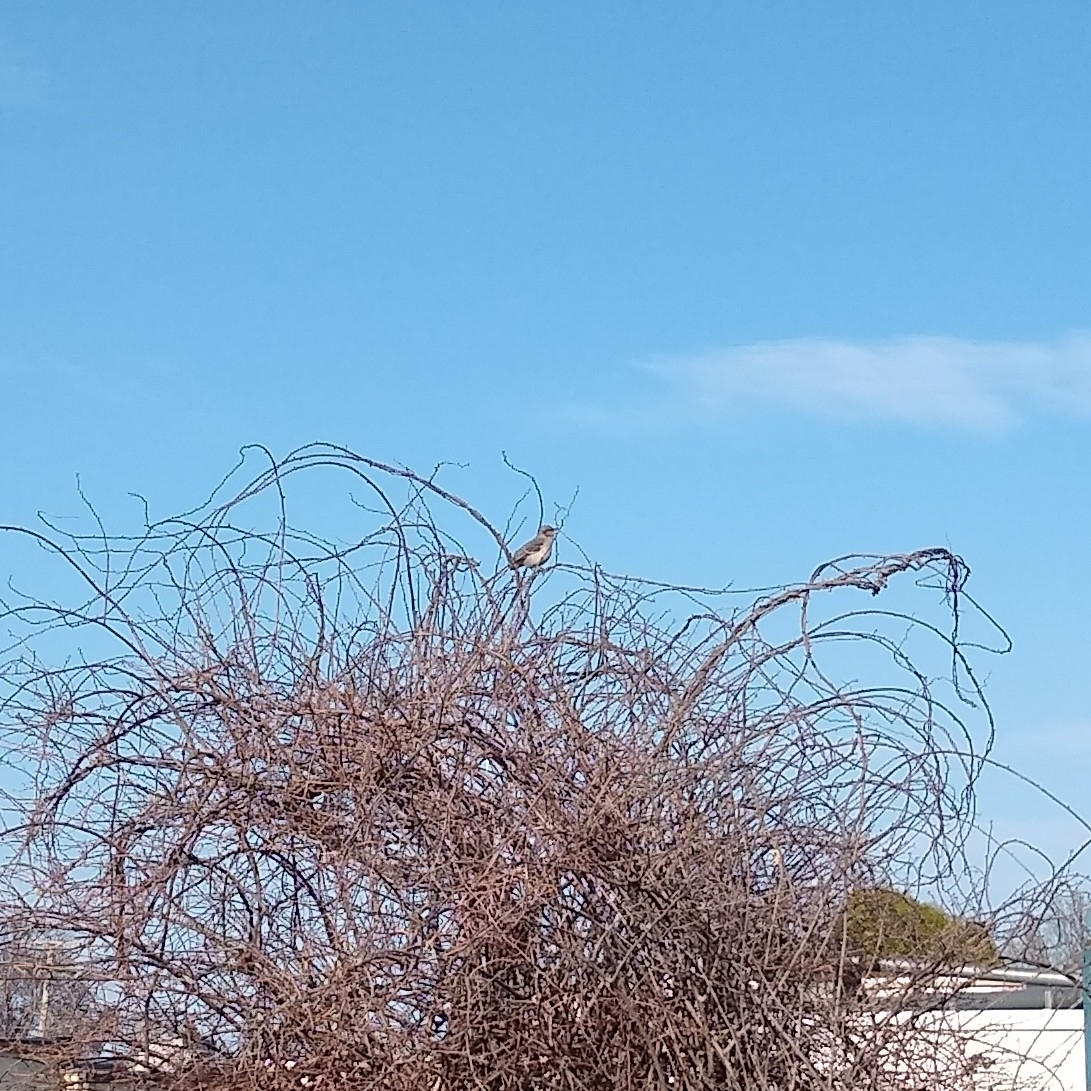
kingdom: Animalia
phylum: Chordata
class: Aves
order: Passeriformes
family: Mimidae
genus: Mimus
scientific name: Mimus polyglottos
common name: Northern mockingbird
